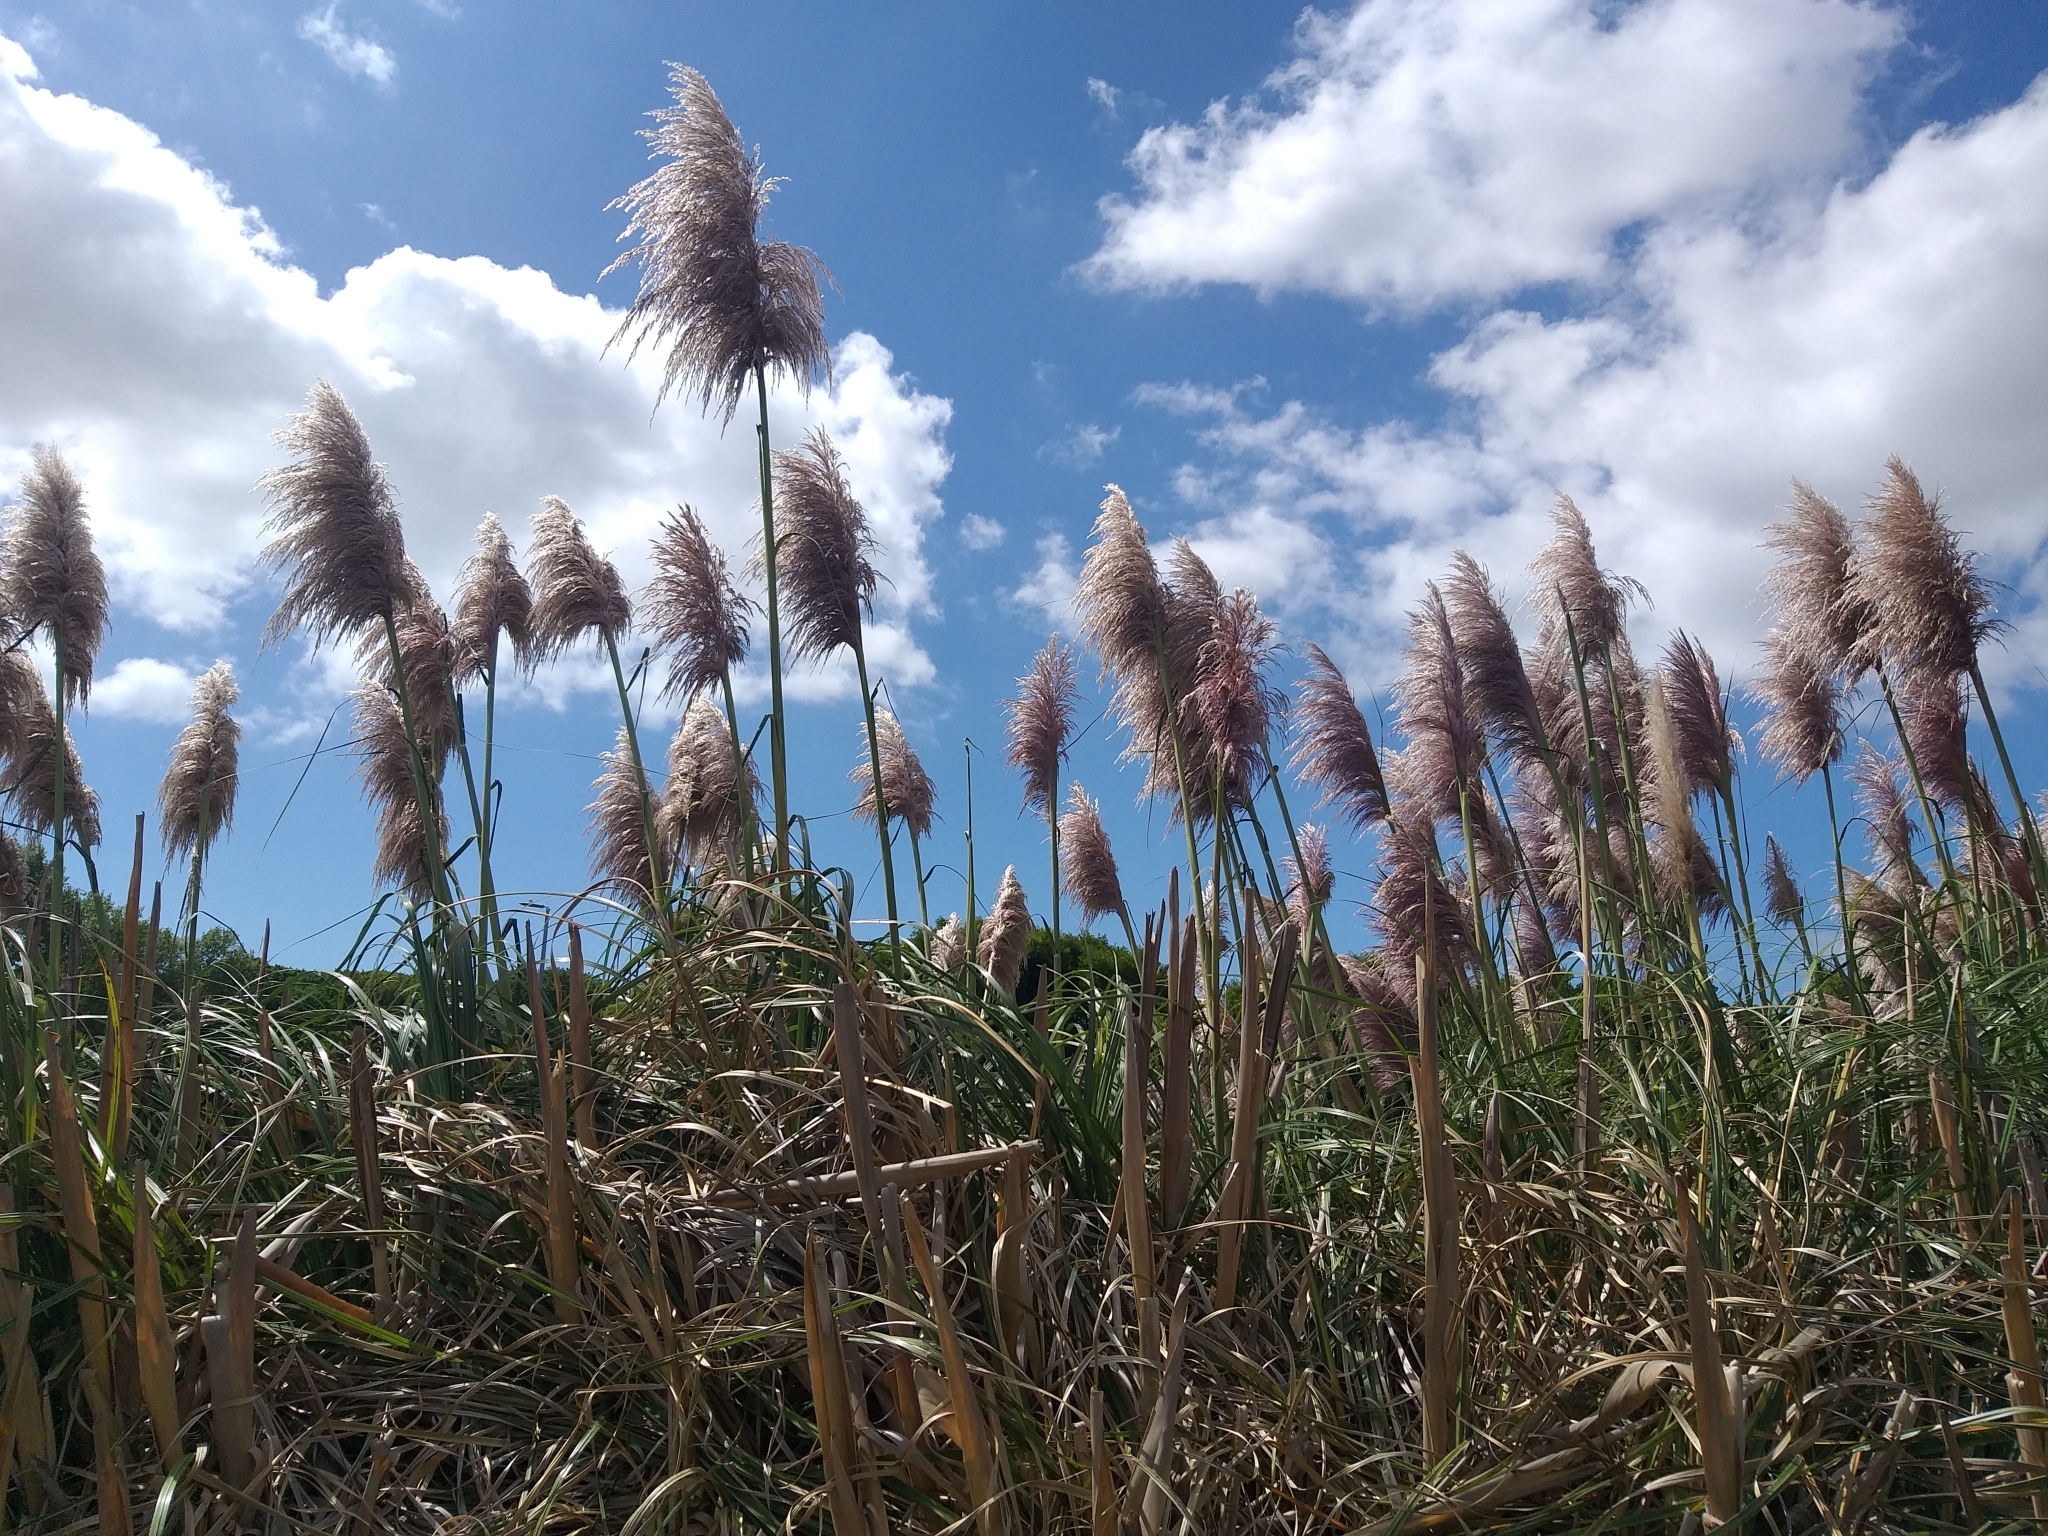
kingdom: Plantae
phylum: Tracheophyta
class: Liliopsida
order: Poales
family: Poaceae
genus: Cortaderia
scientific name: Cortaderia jubata
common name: Purple pampas grass
